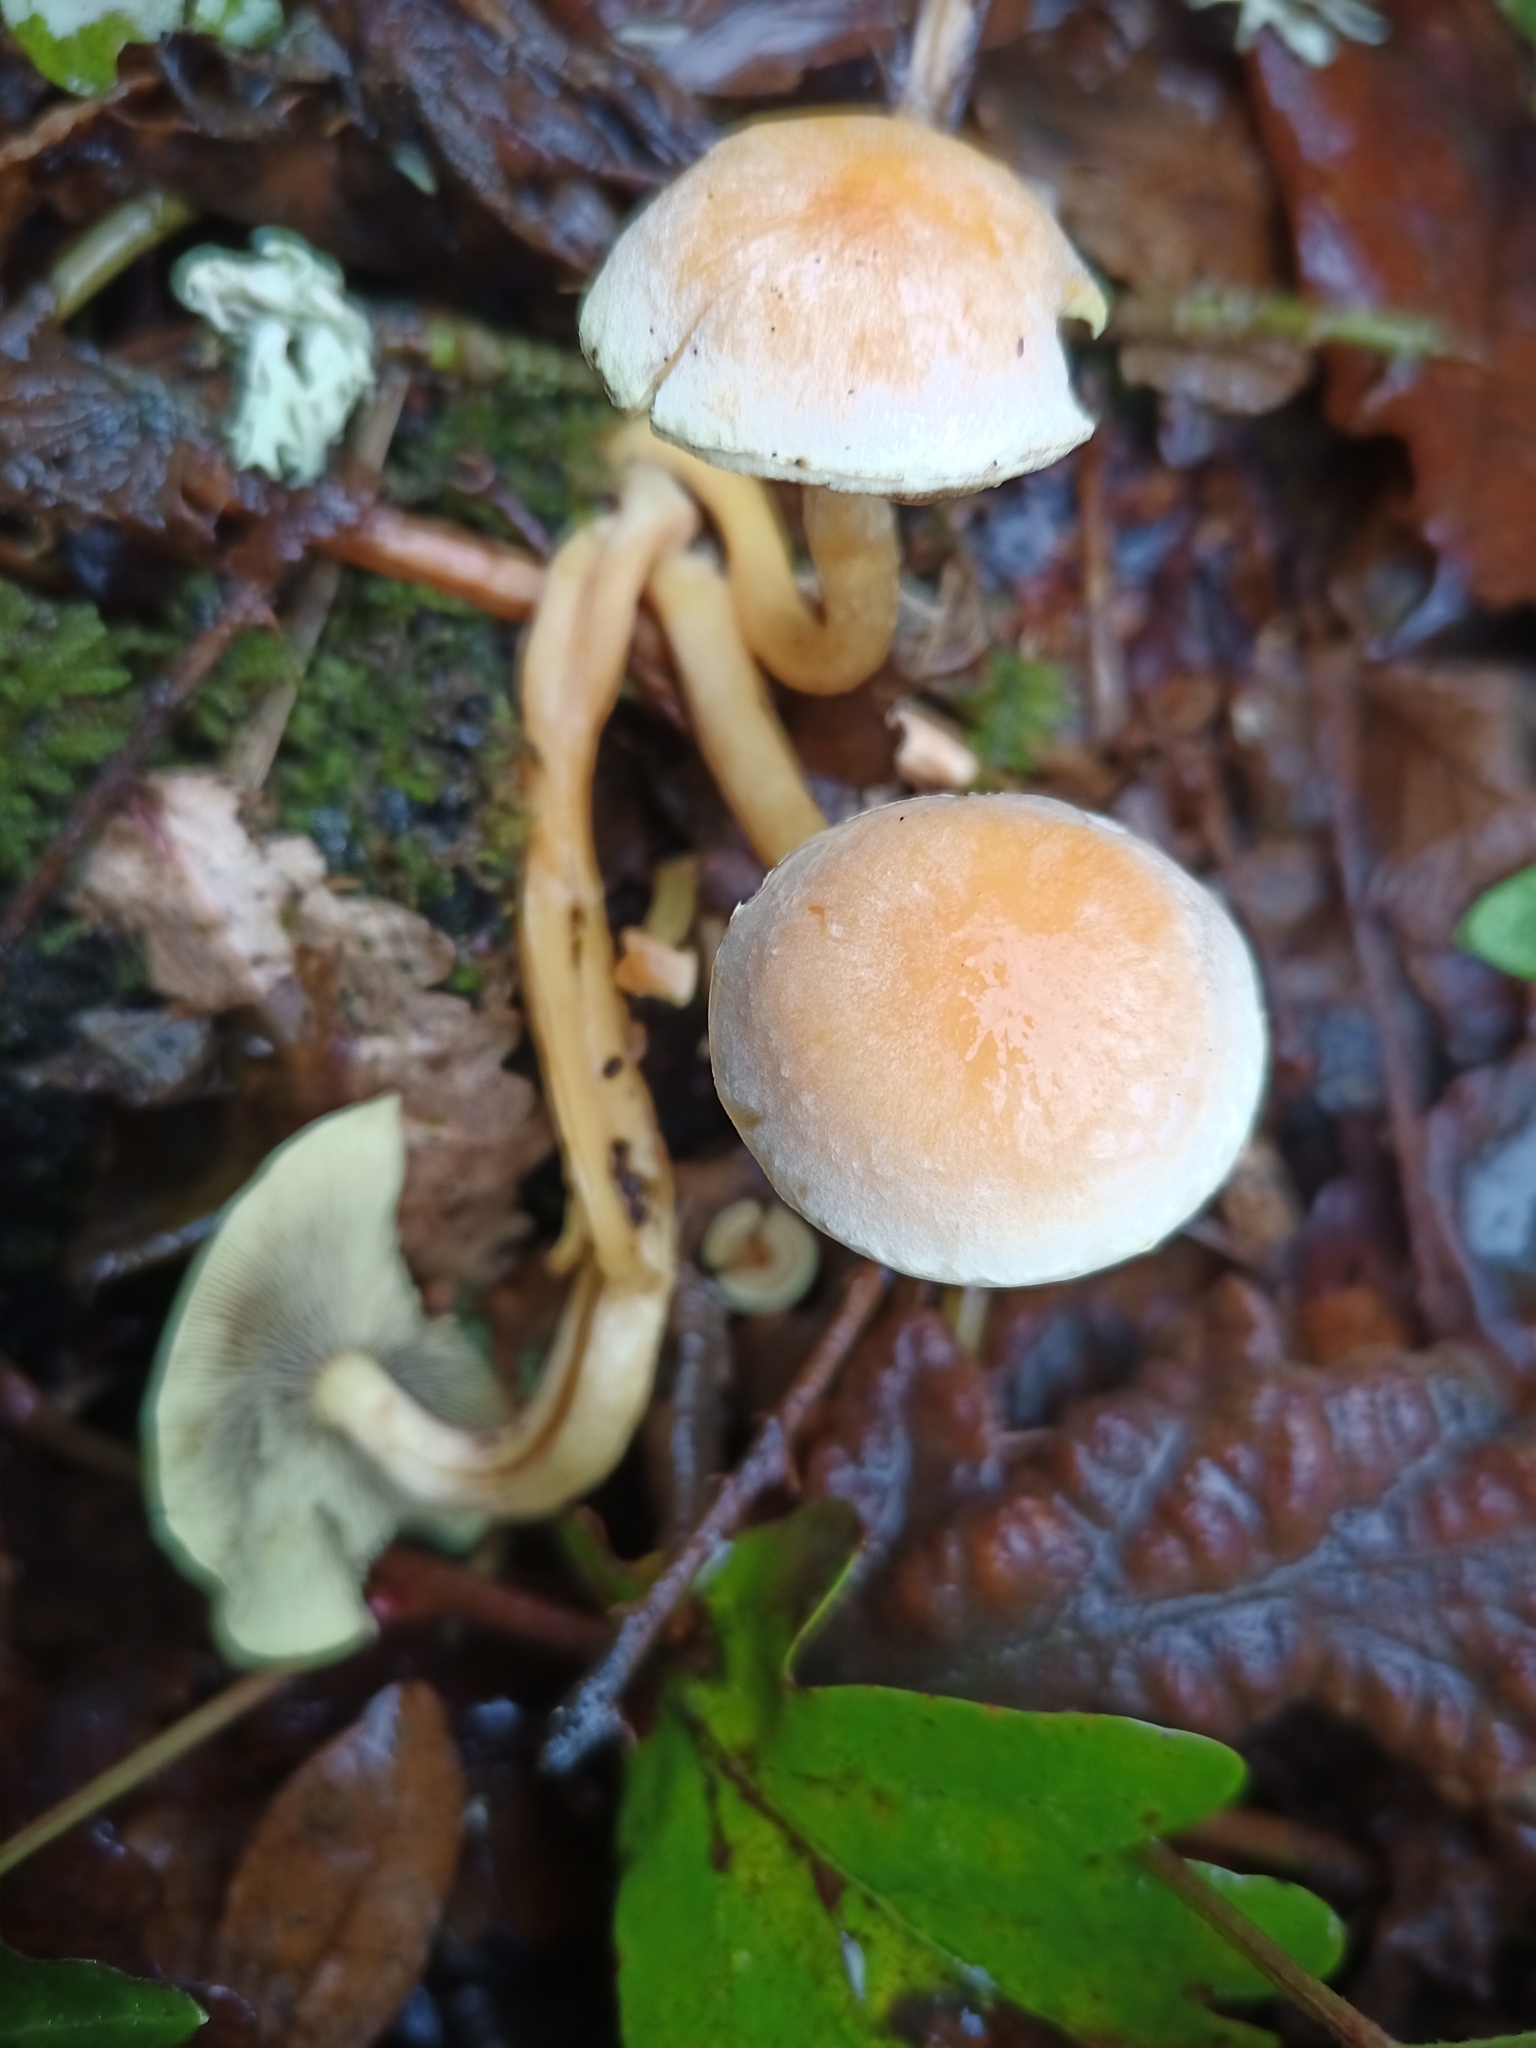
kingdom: Fungi
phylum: Basidiomycota
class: Agaricomycetes
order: Agaricales
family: Strophariaceae
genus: Hypholoma
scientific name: Hypholoma fasciculare
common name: Sulphur tuft
